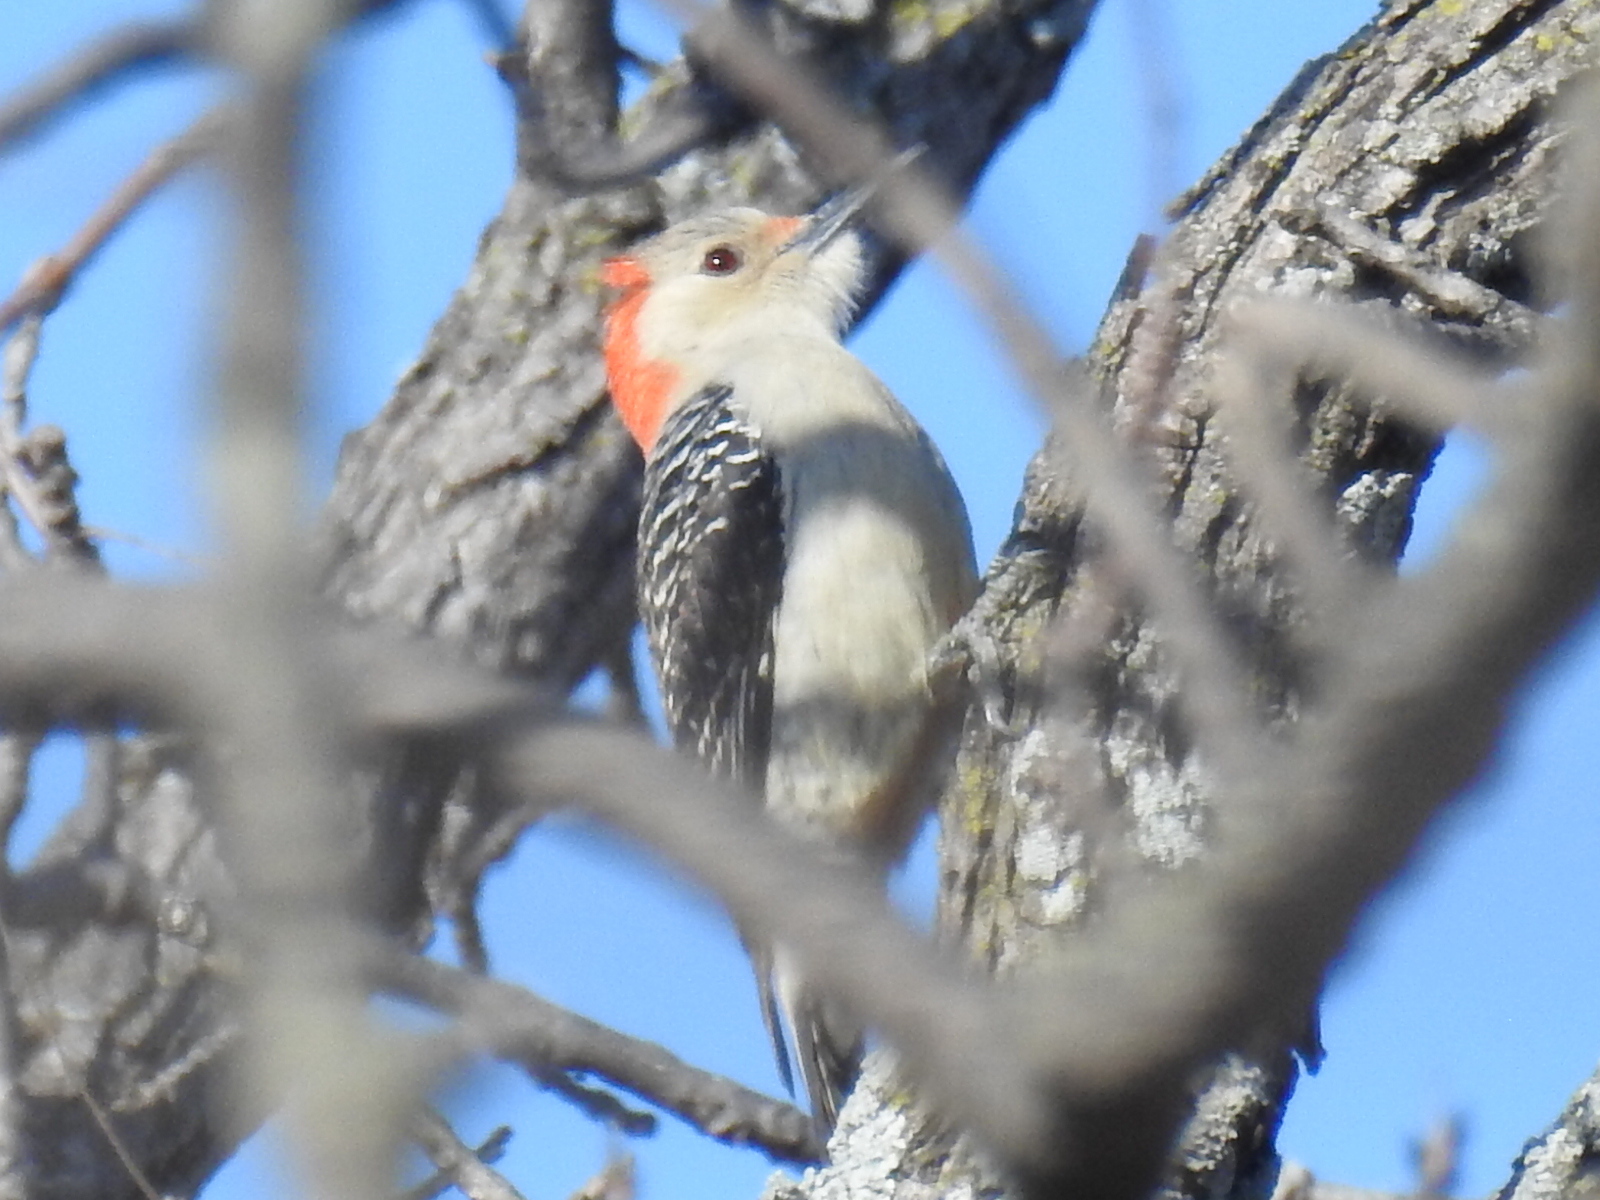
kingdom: Animalia
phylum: Chordata
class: Aves
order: Piciformes
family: Picidae
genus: Melanerpes
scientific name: Melanerpes carolinus
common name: Red-bellied woodpecker
